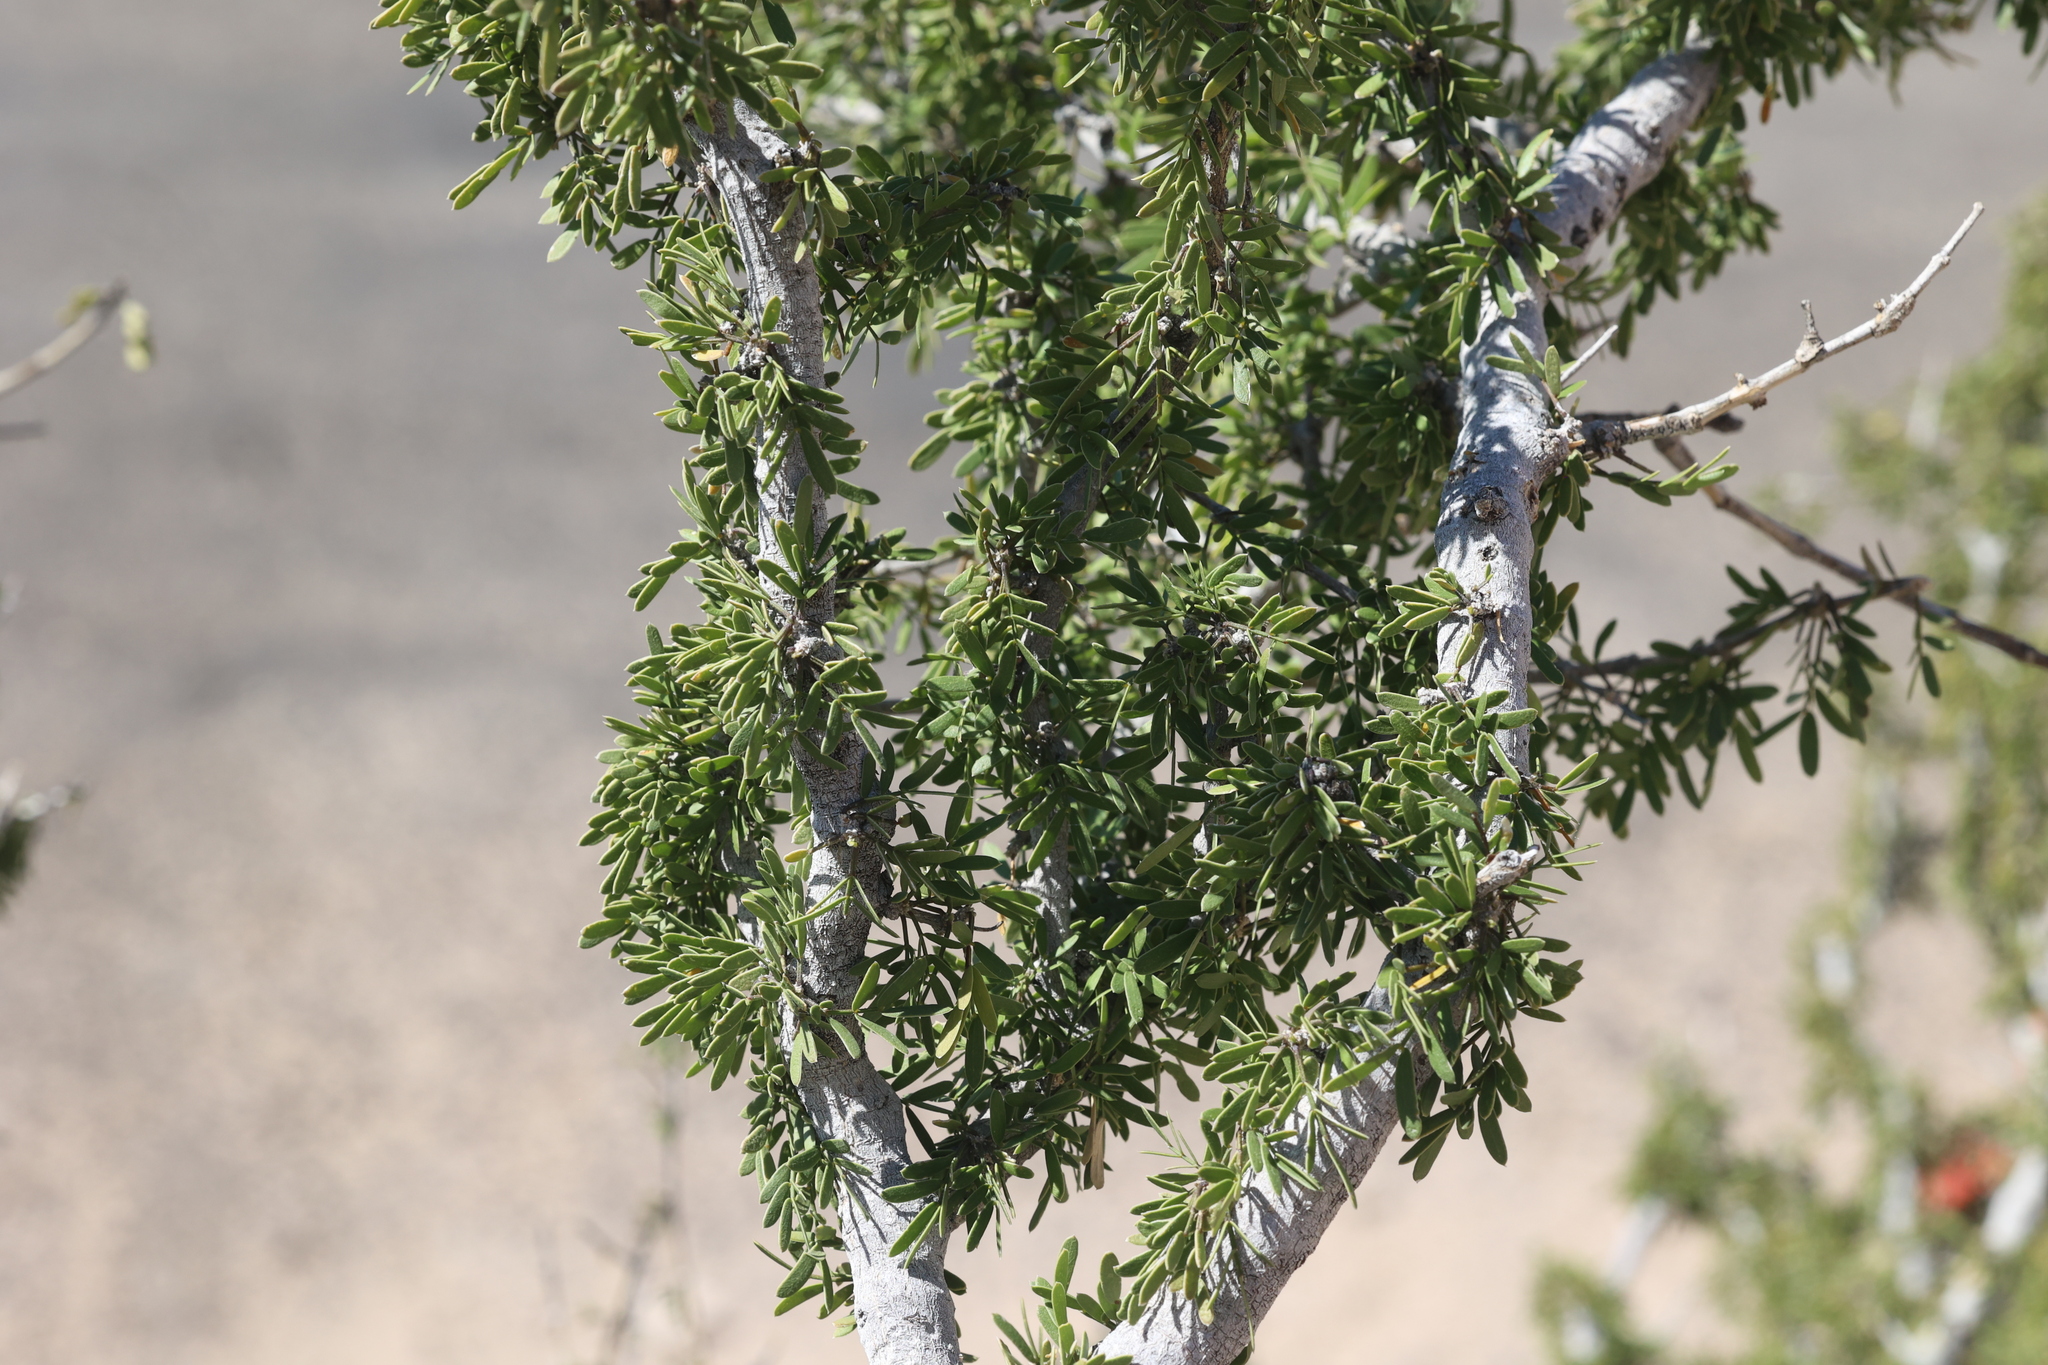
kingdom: Plantae
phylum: Tracheophyta
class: Magnoliopsida
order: Zygophyllales
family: Zygophyllaceae
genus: Porlieria
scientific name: Porlieria angustifolia
